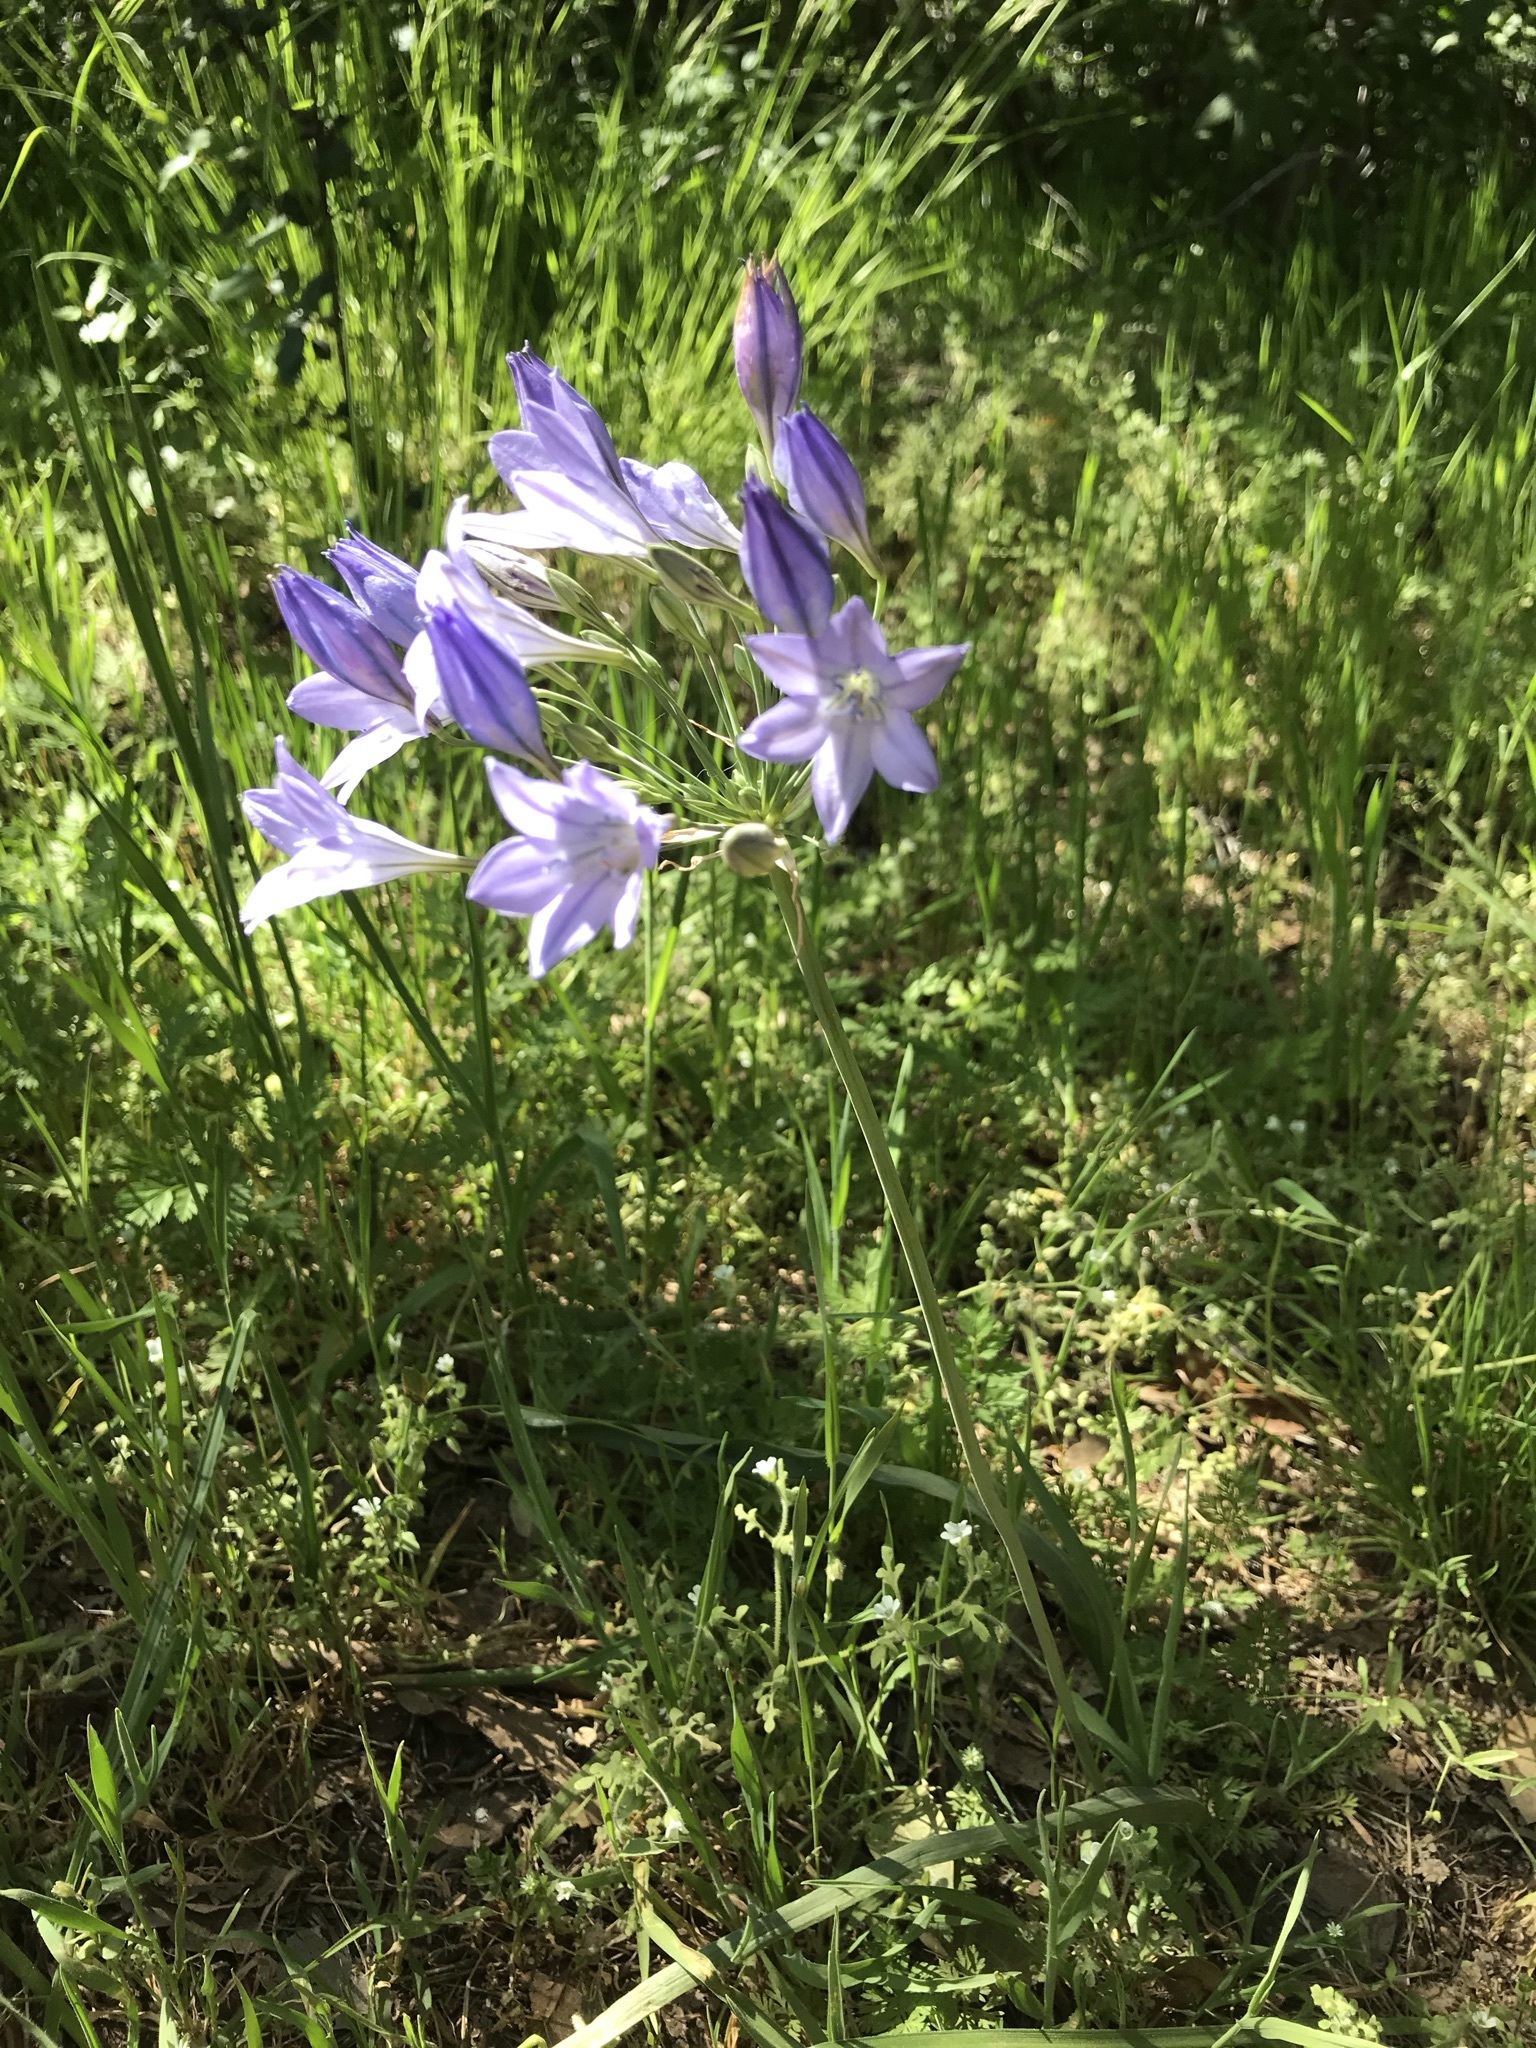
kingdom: Plantae
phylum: Tracheophyta
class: Liliopsida
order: Asparagales
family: Asparagaceae
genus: Triteleia
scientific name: Triteleia laxa
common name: Triplet-lily
